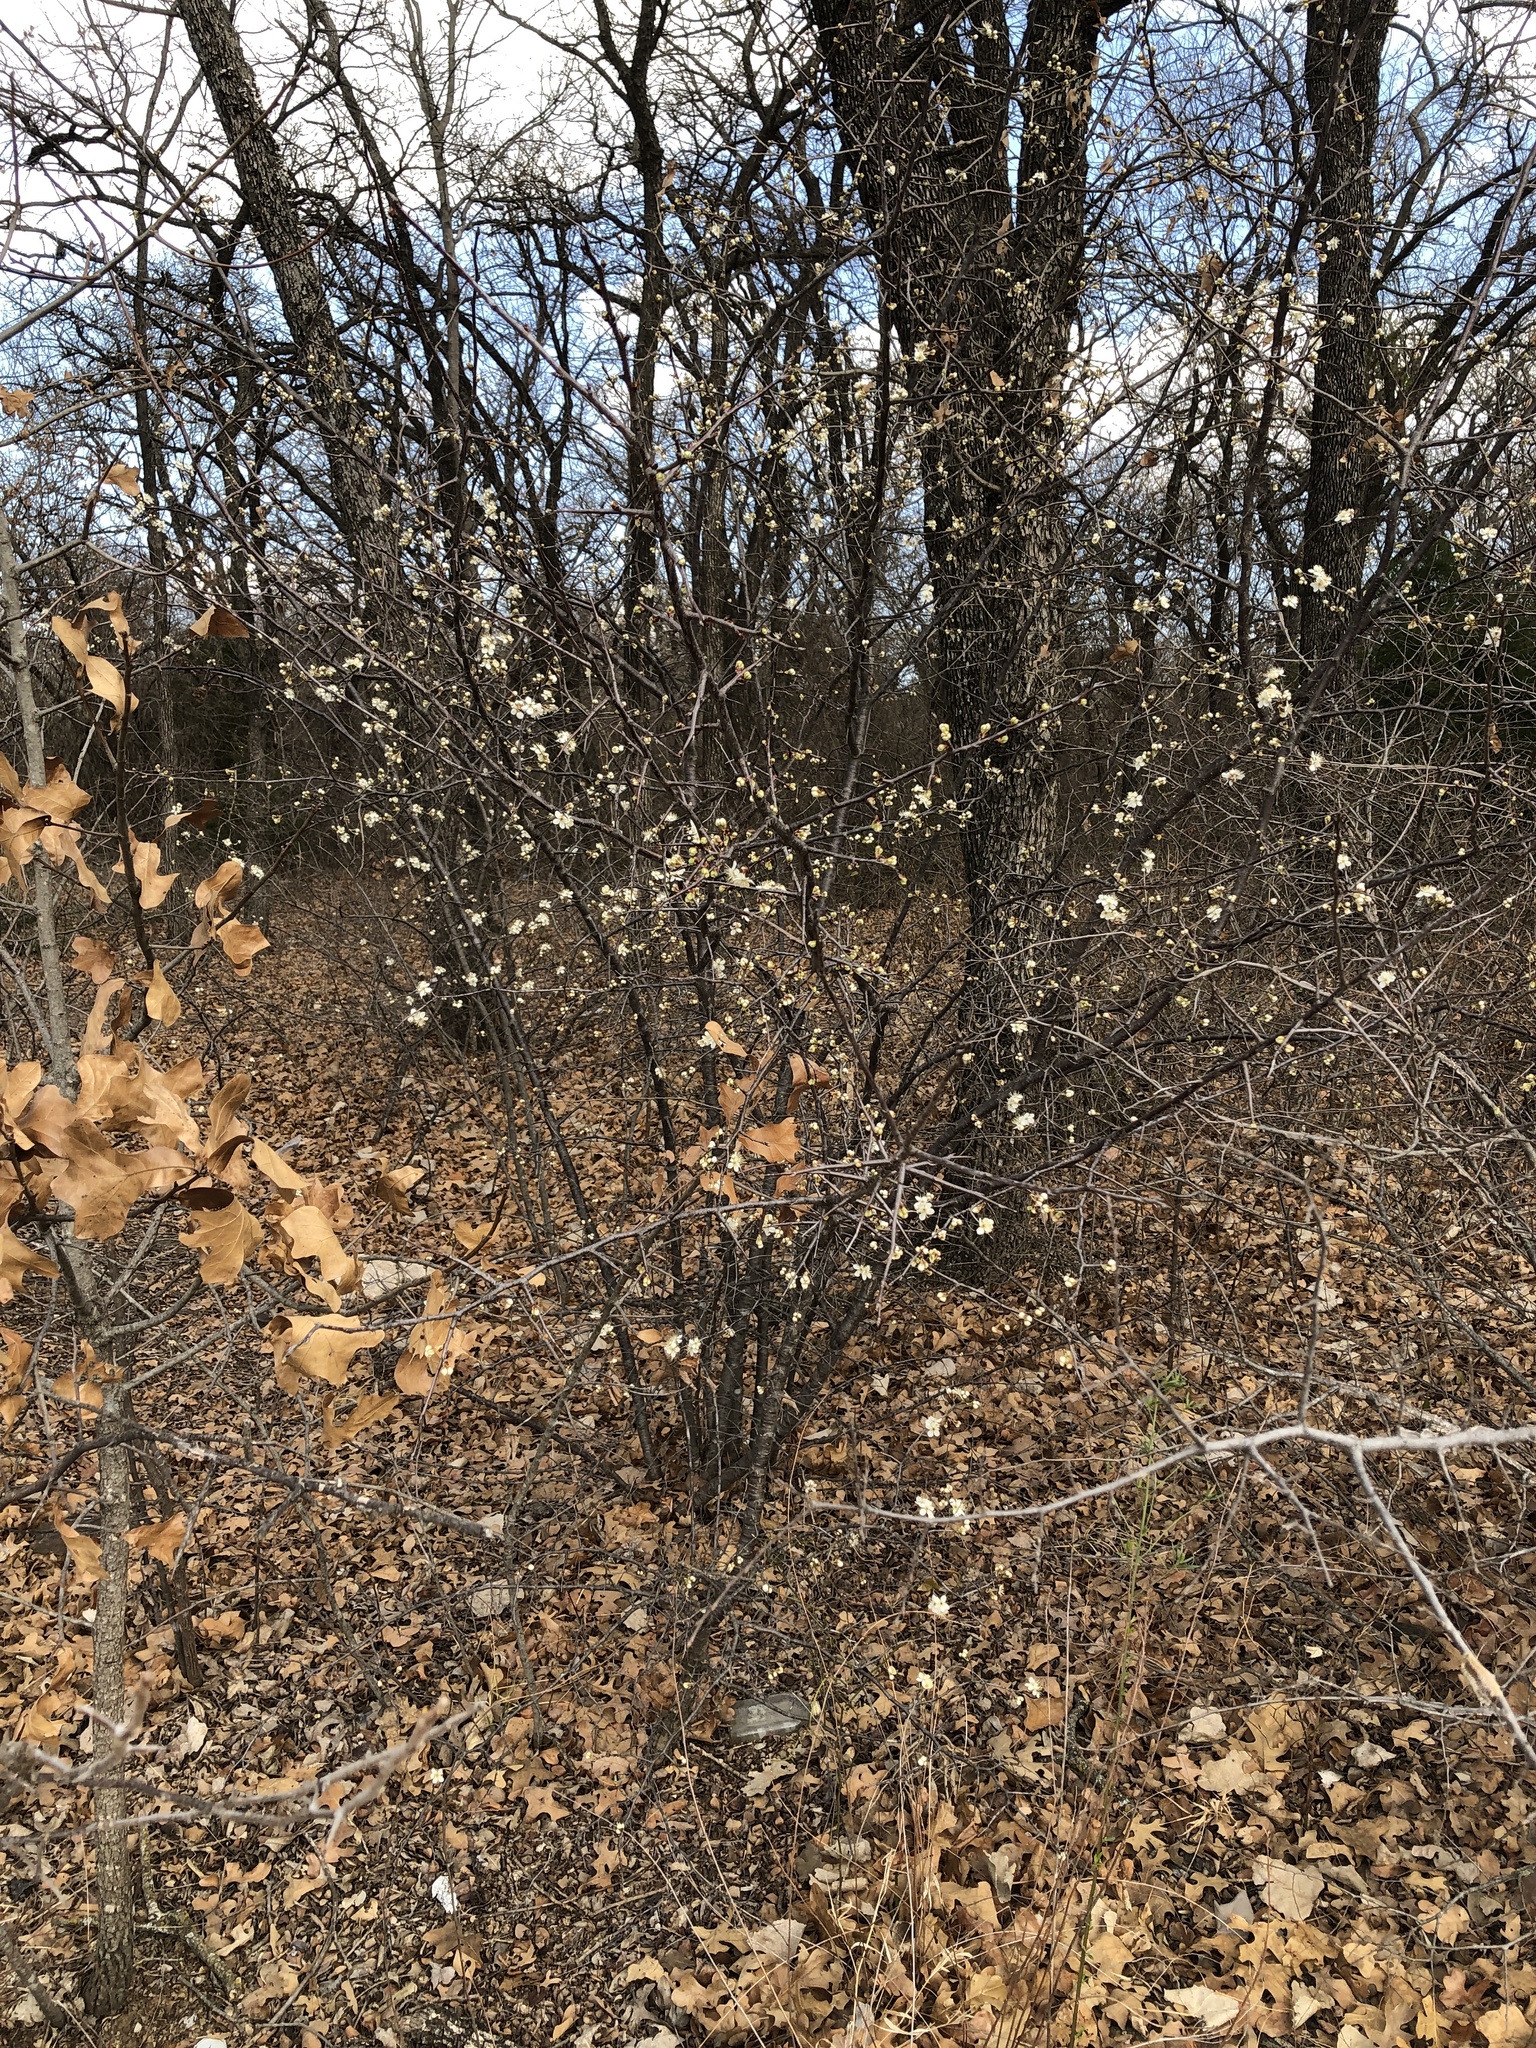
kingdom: Plantae
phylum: Tracheophyta
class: Magnoliopsida
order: Rosales
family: Rosaceae
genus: Prunus
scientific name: Prunus mexicana
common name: Mexican plum
